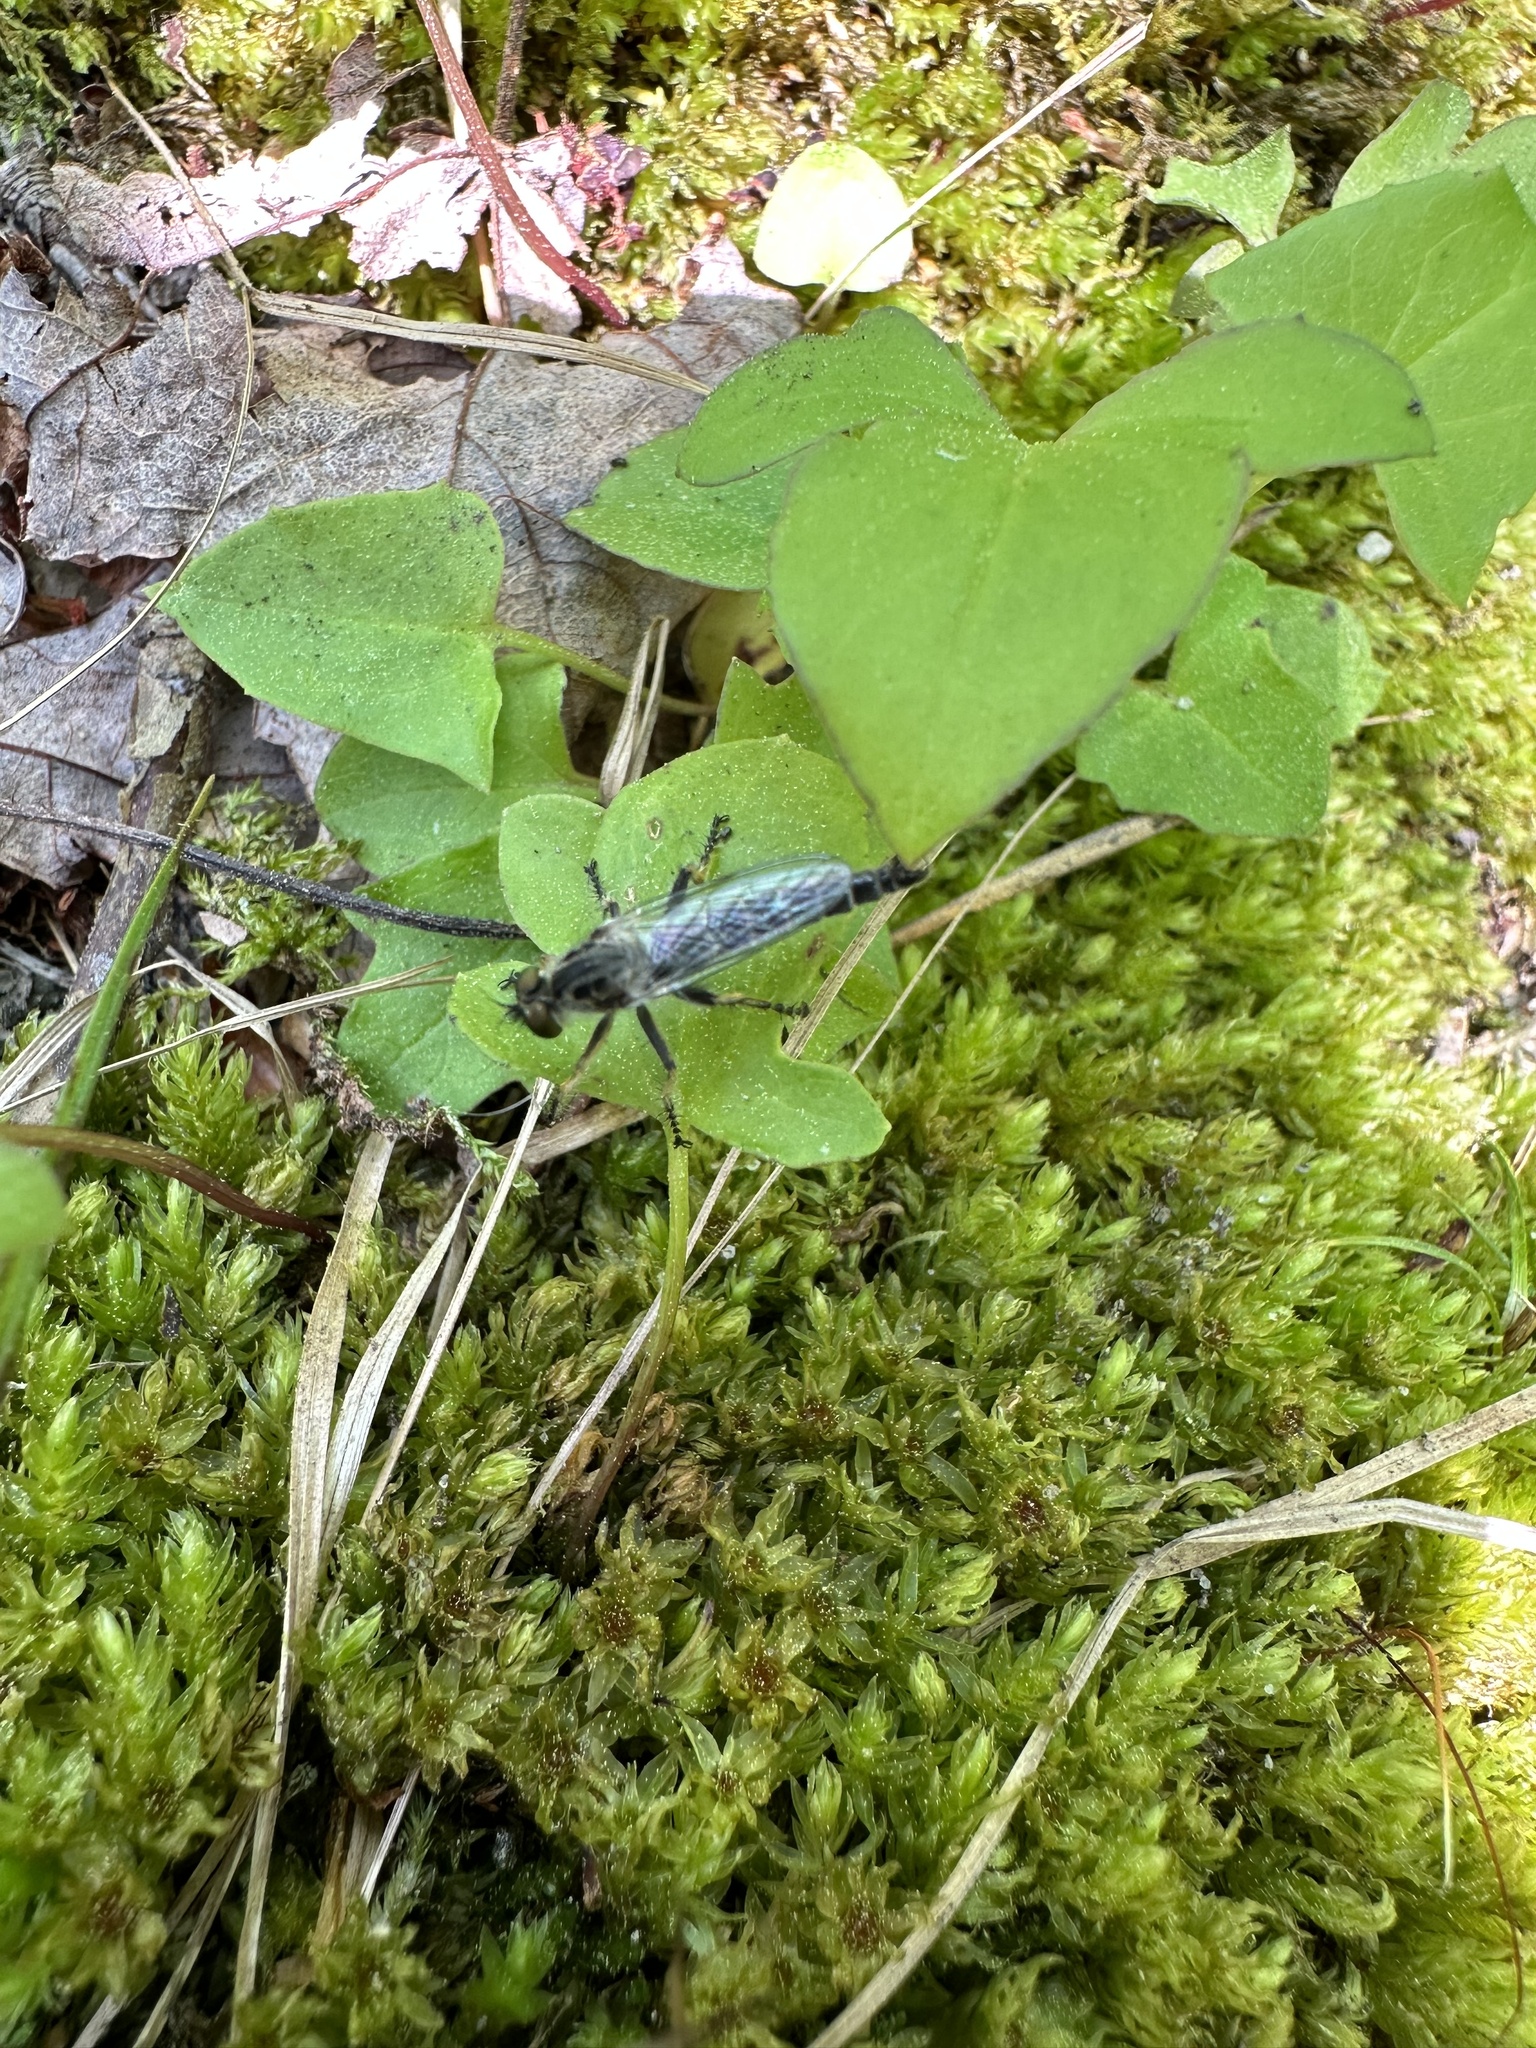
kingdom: Animalia
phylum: Arthropoda
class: Insecta
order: Diptera
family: Asilidae
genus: Asilus
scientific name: Asilus flavofemoratus
